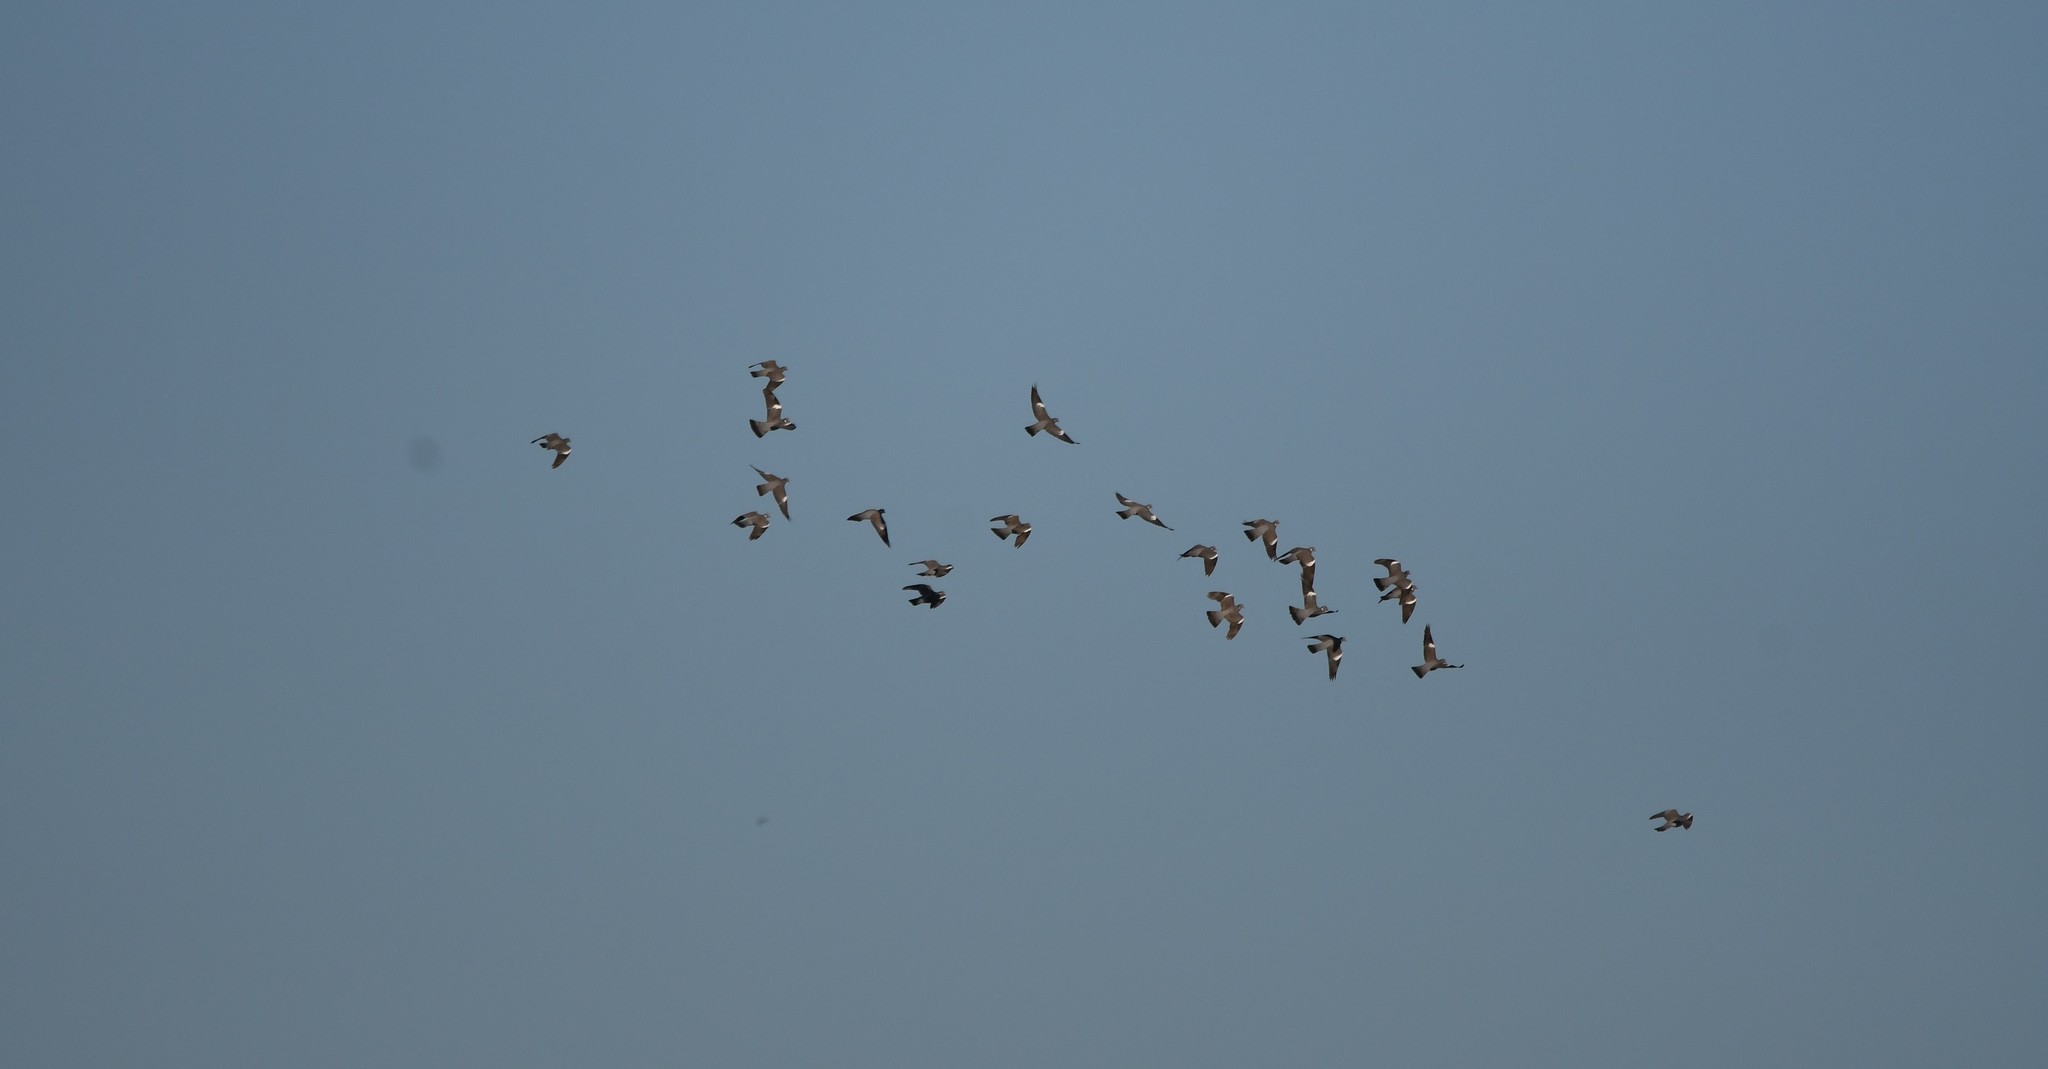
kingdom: Animalia
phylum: Chordata
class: Aves
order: Columbiformes
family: Columbidae
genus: Columba
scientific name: Columba palumbus
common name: Common wood pigeon
